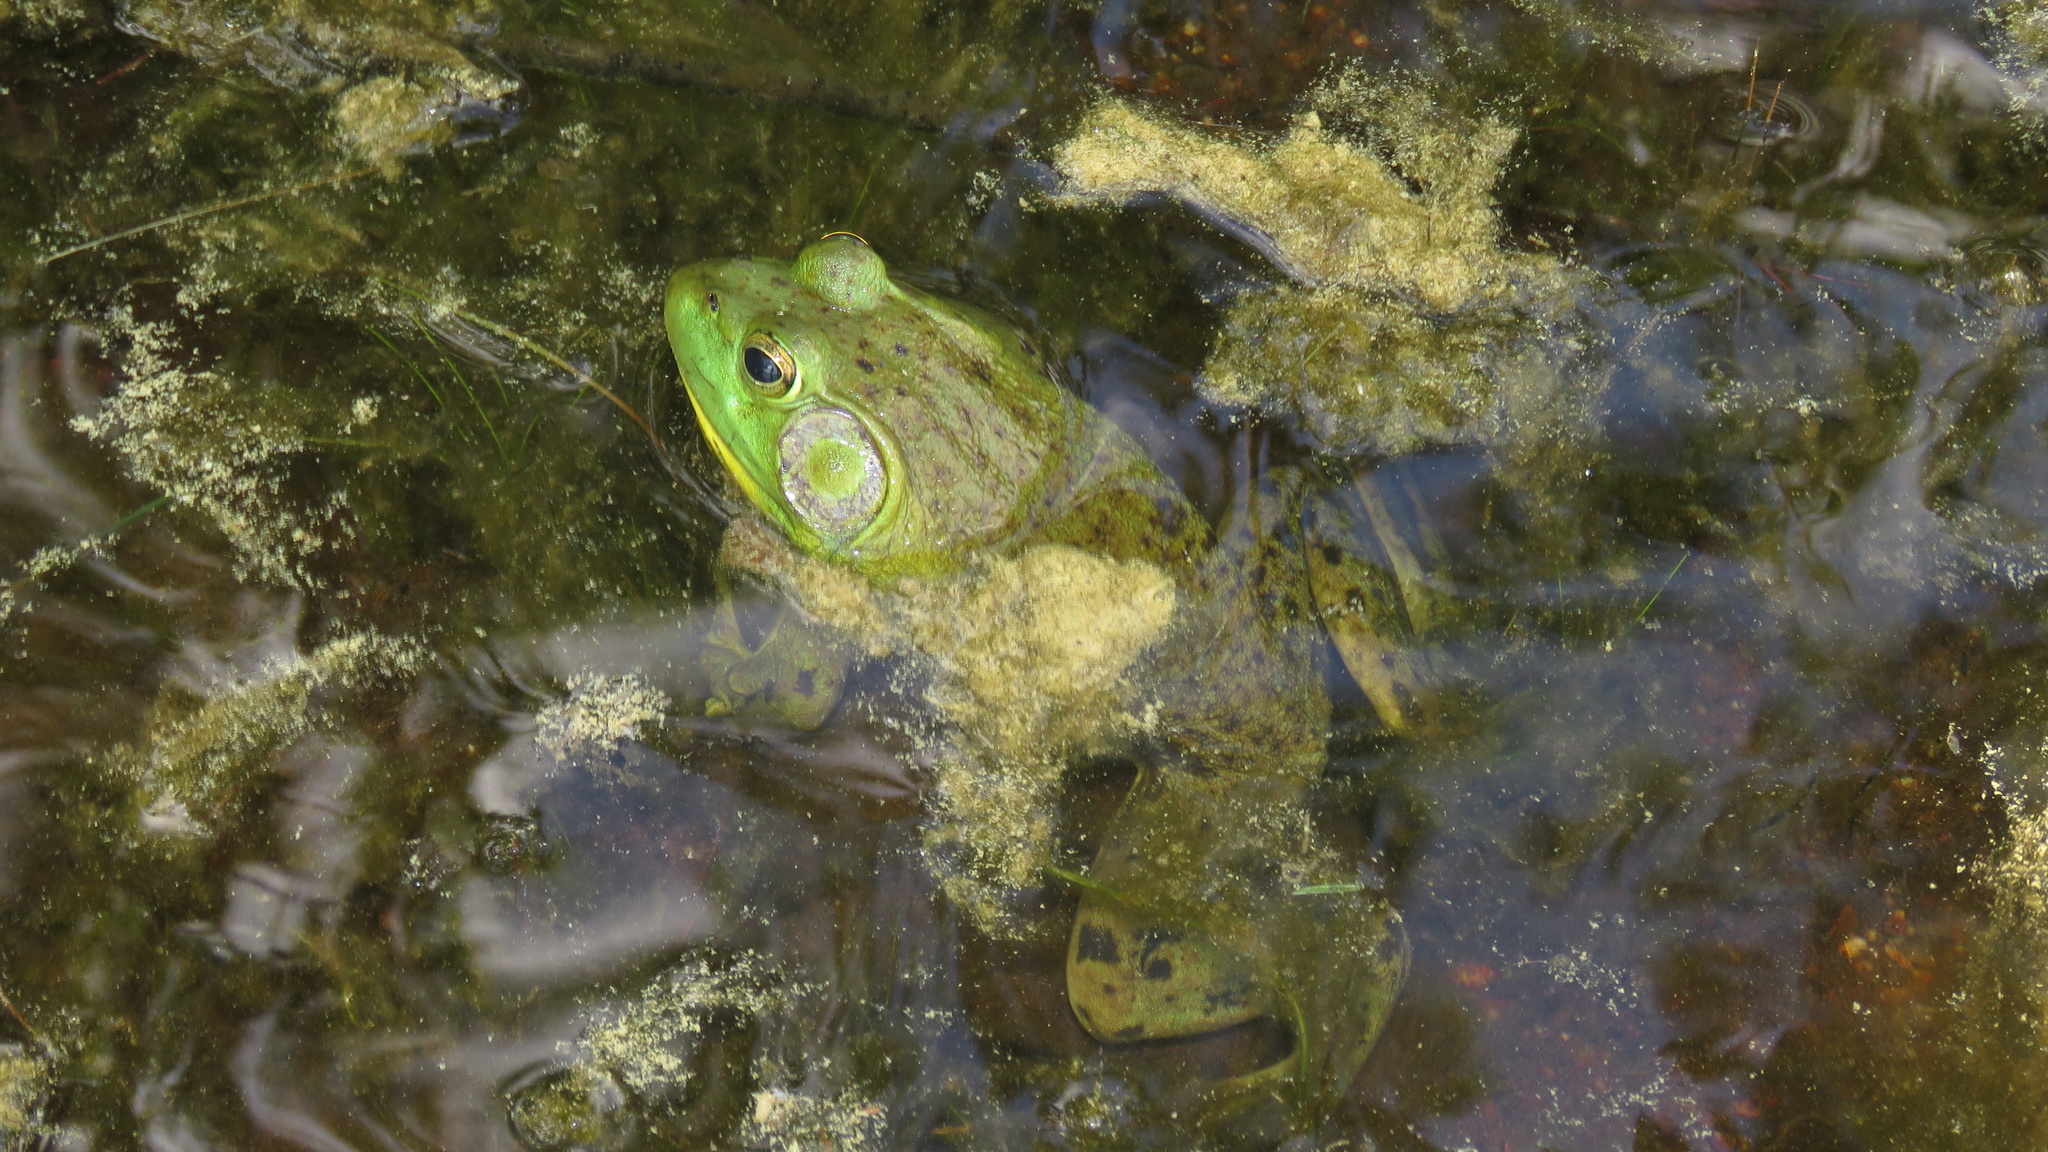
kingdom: Animalia
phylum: Chordata
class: Amphibia
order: Anura
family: Ranidae
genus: Lithobates
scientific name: Lithobates catesbeianus
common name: American bullfrog
